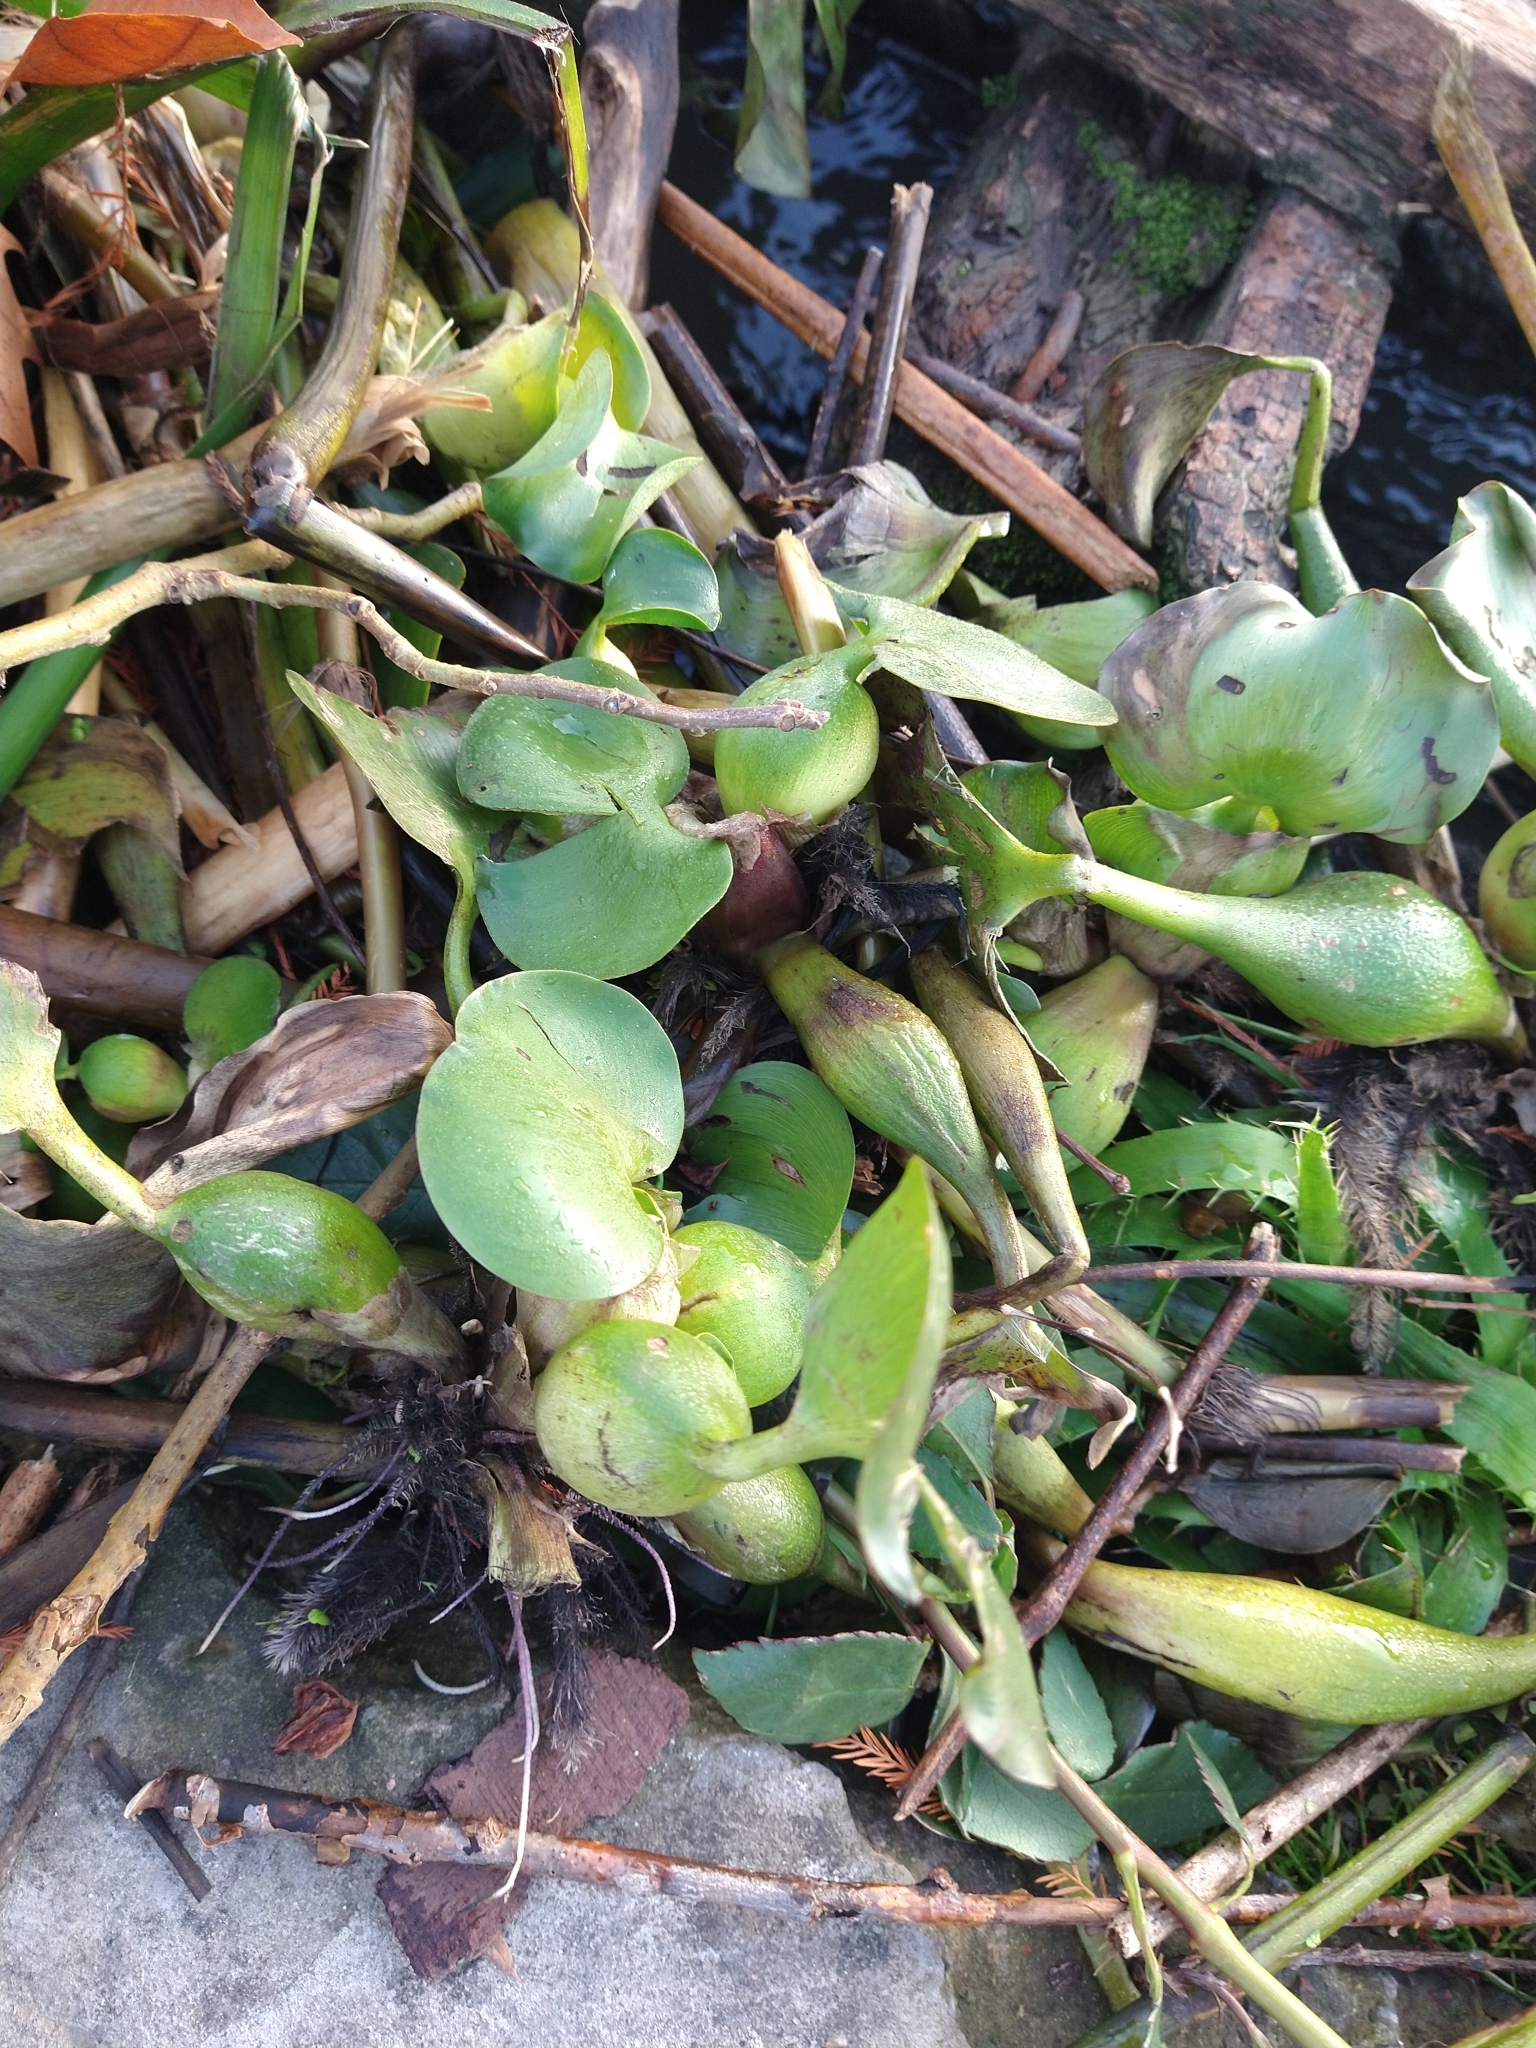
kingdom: Plantae
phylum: Tracheophyta
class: Liliopsida
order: Commelinales
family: Pontederiaceae
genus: Pontederia
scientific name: Pontederia crassipes
